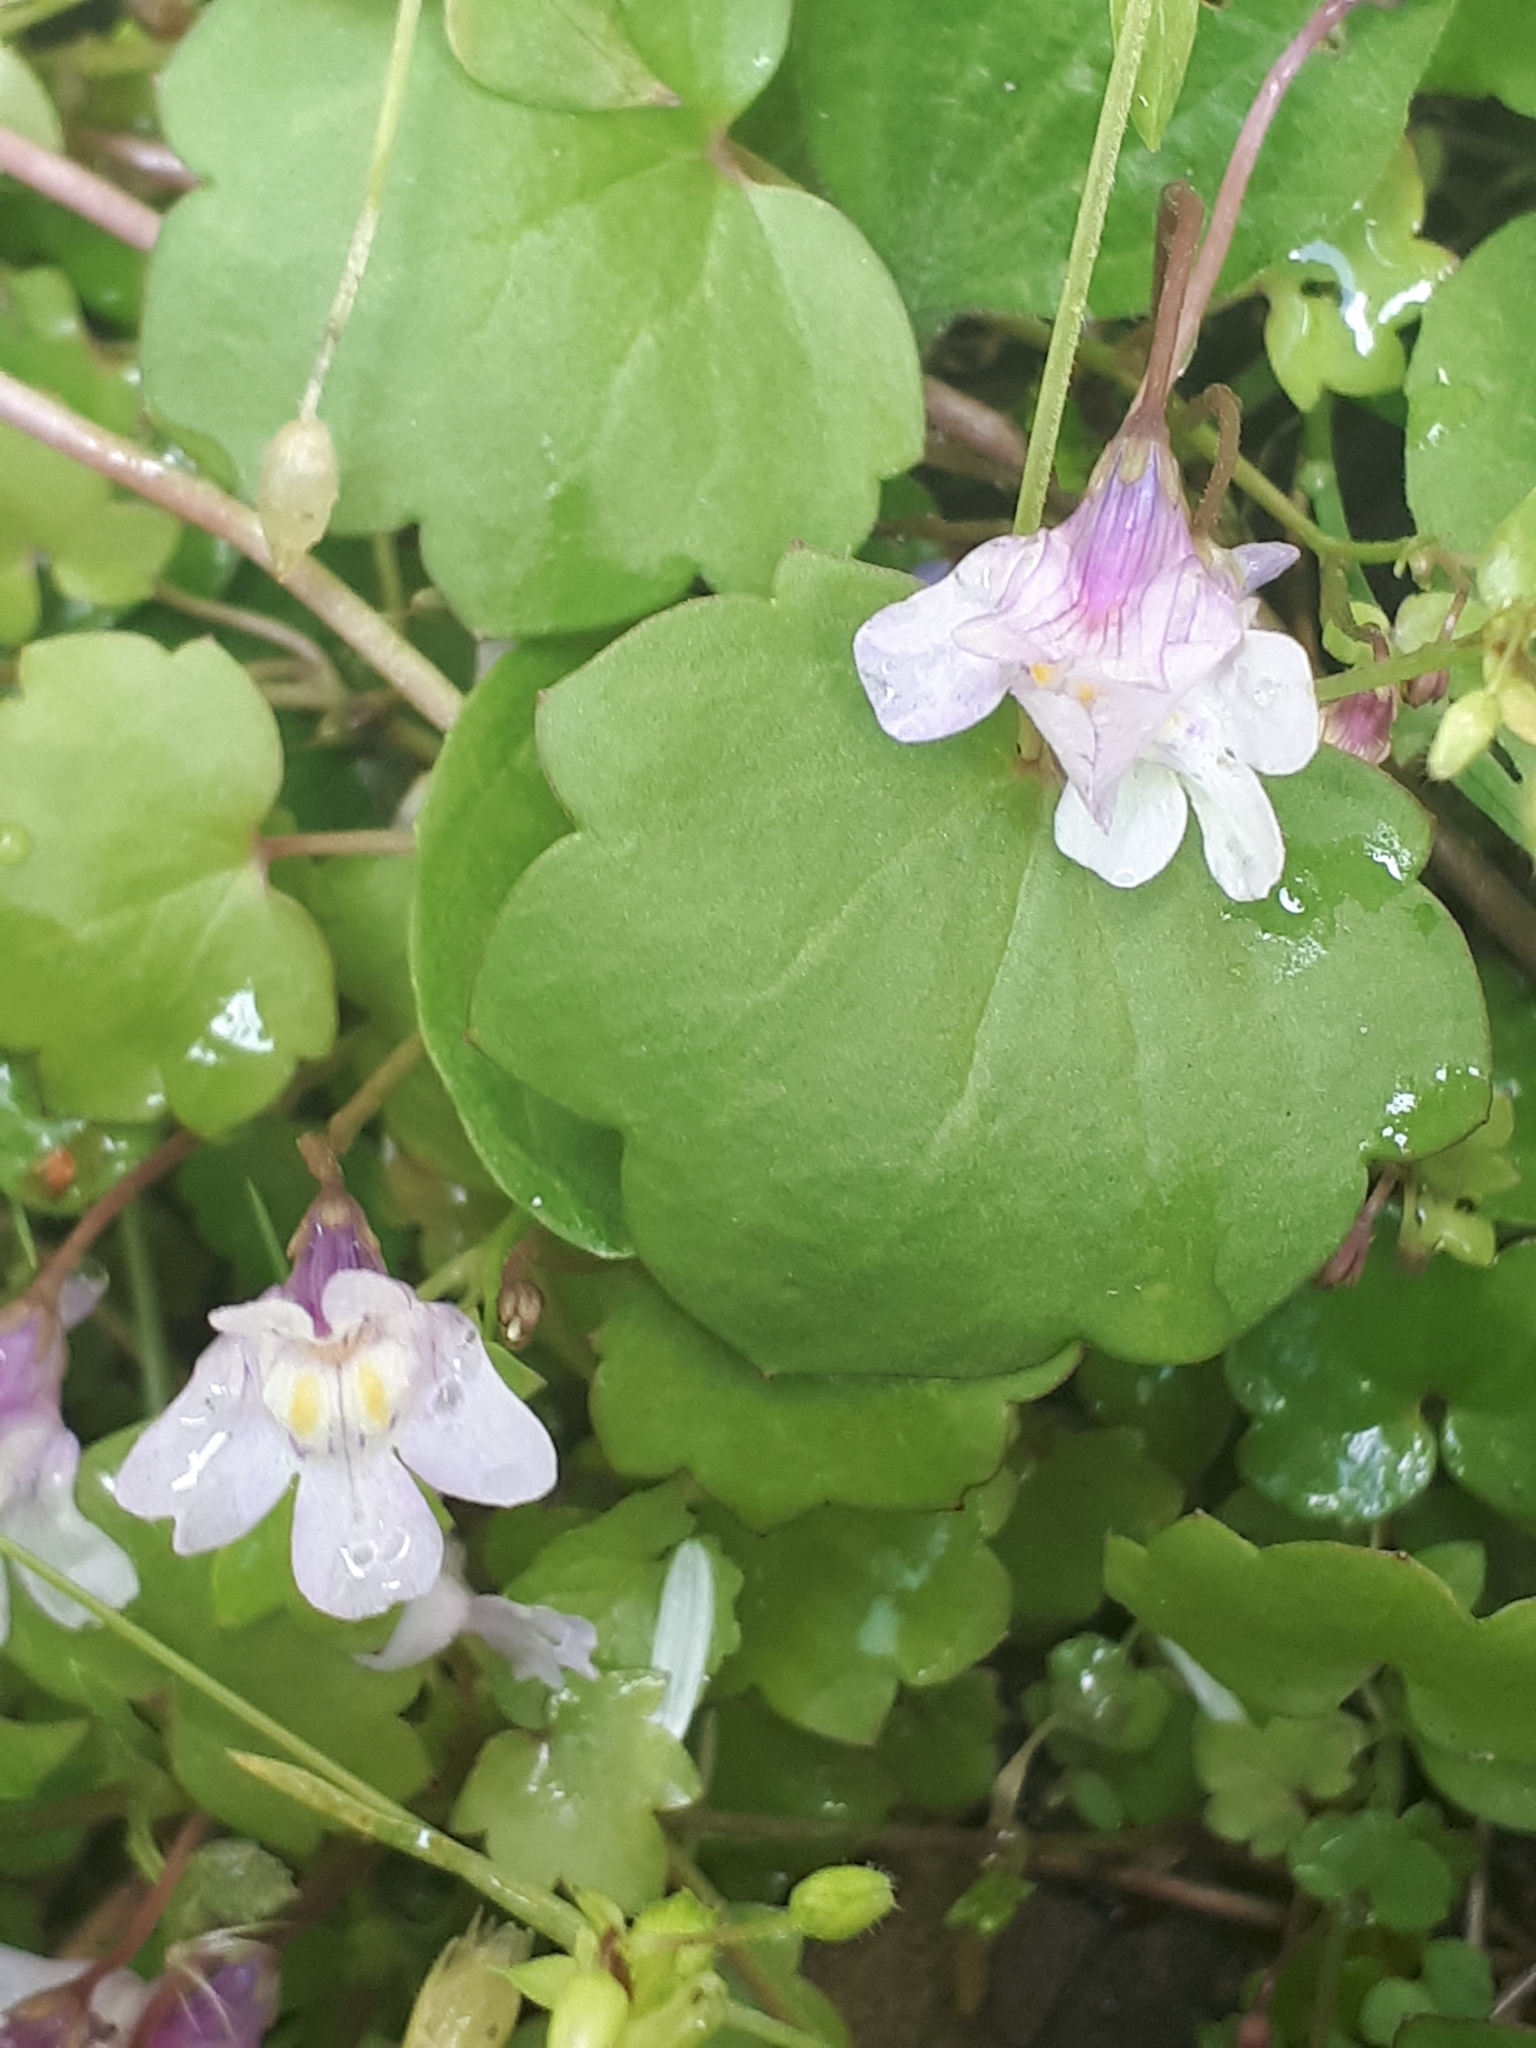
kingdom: Plantae
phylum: Tracheophyta
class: Magnoliopsida
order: Lamiales
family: Plantaginaceae
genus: Cymbalaria
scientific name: Cymbalaria muralis
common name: Ivy-leaved toadflax
